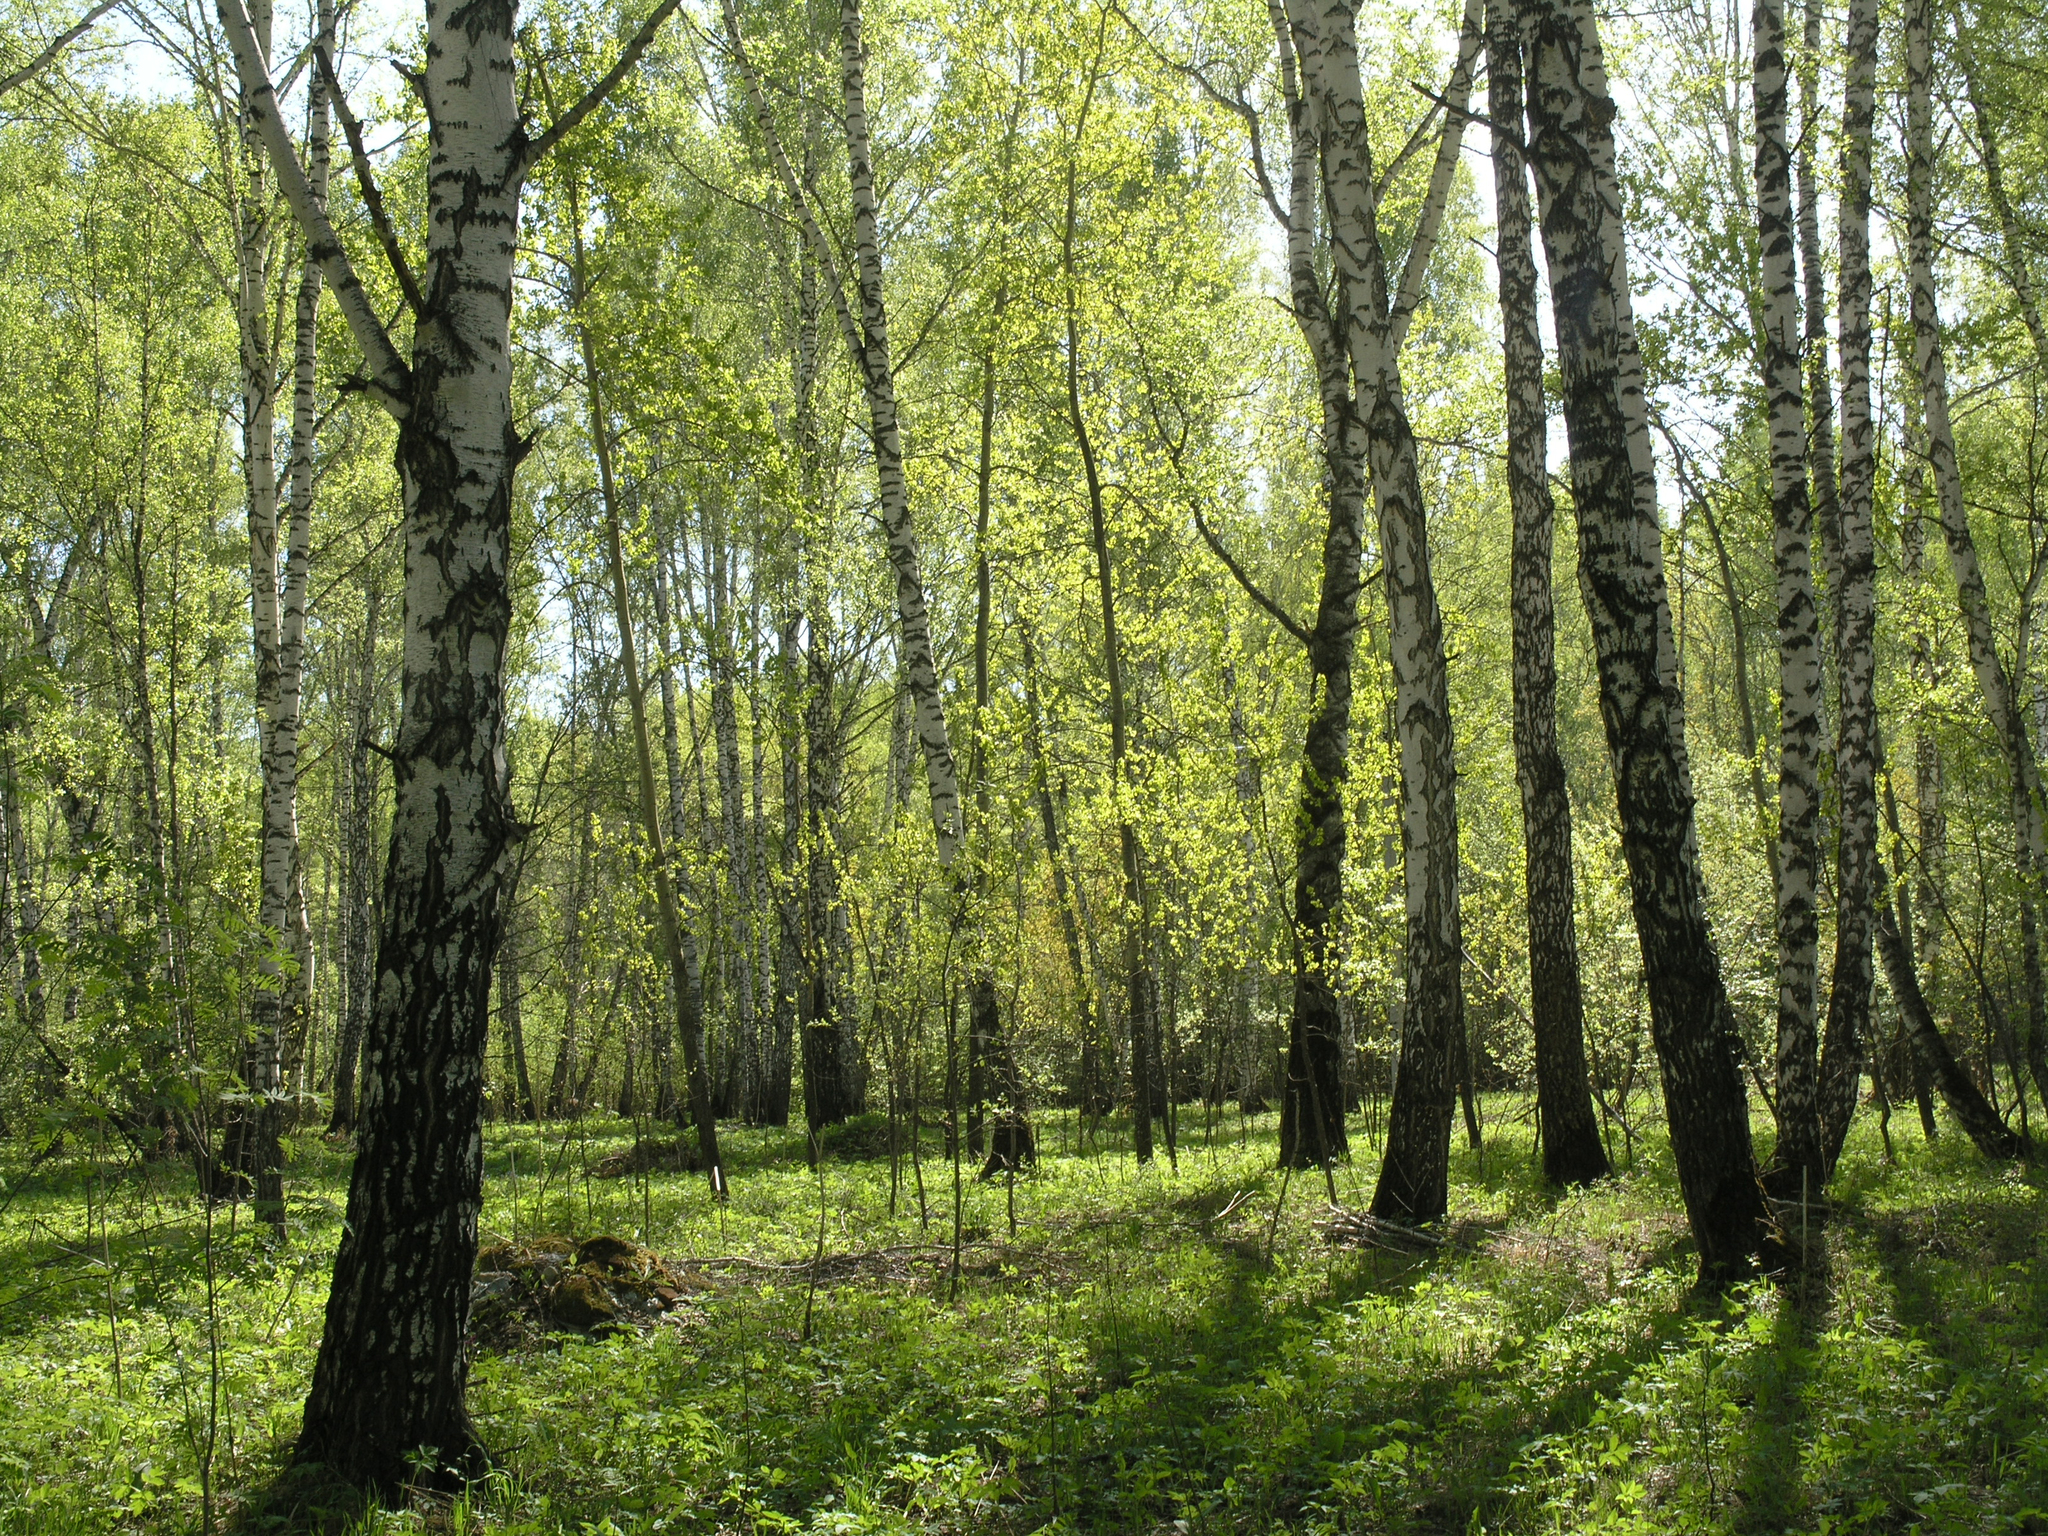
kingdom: Plantae
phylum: Tracheophyta
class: Magnoliopsida
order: Fagales
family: Betulaceae
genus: Betula
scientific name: Betula pendula
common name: Silver birch
